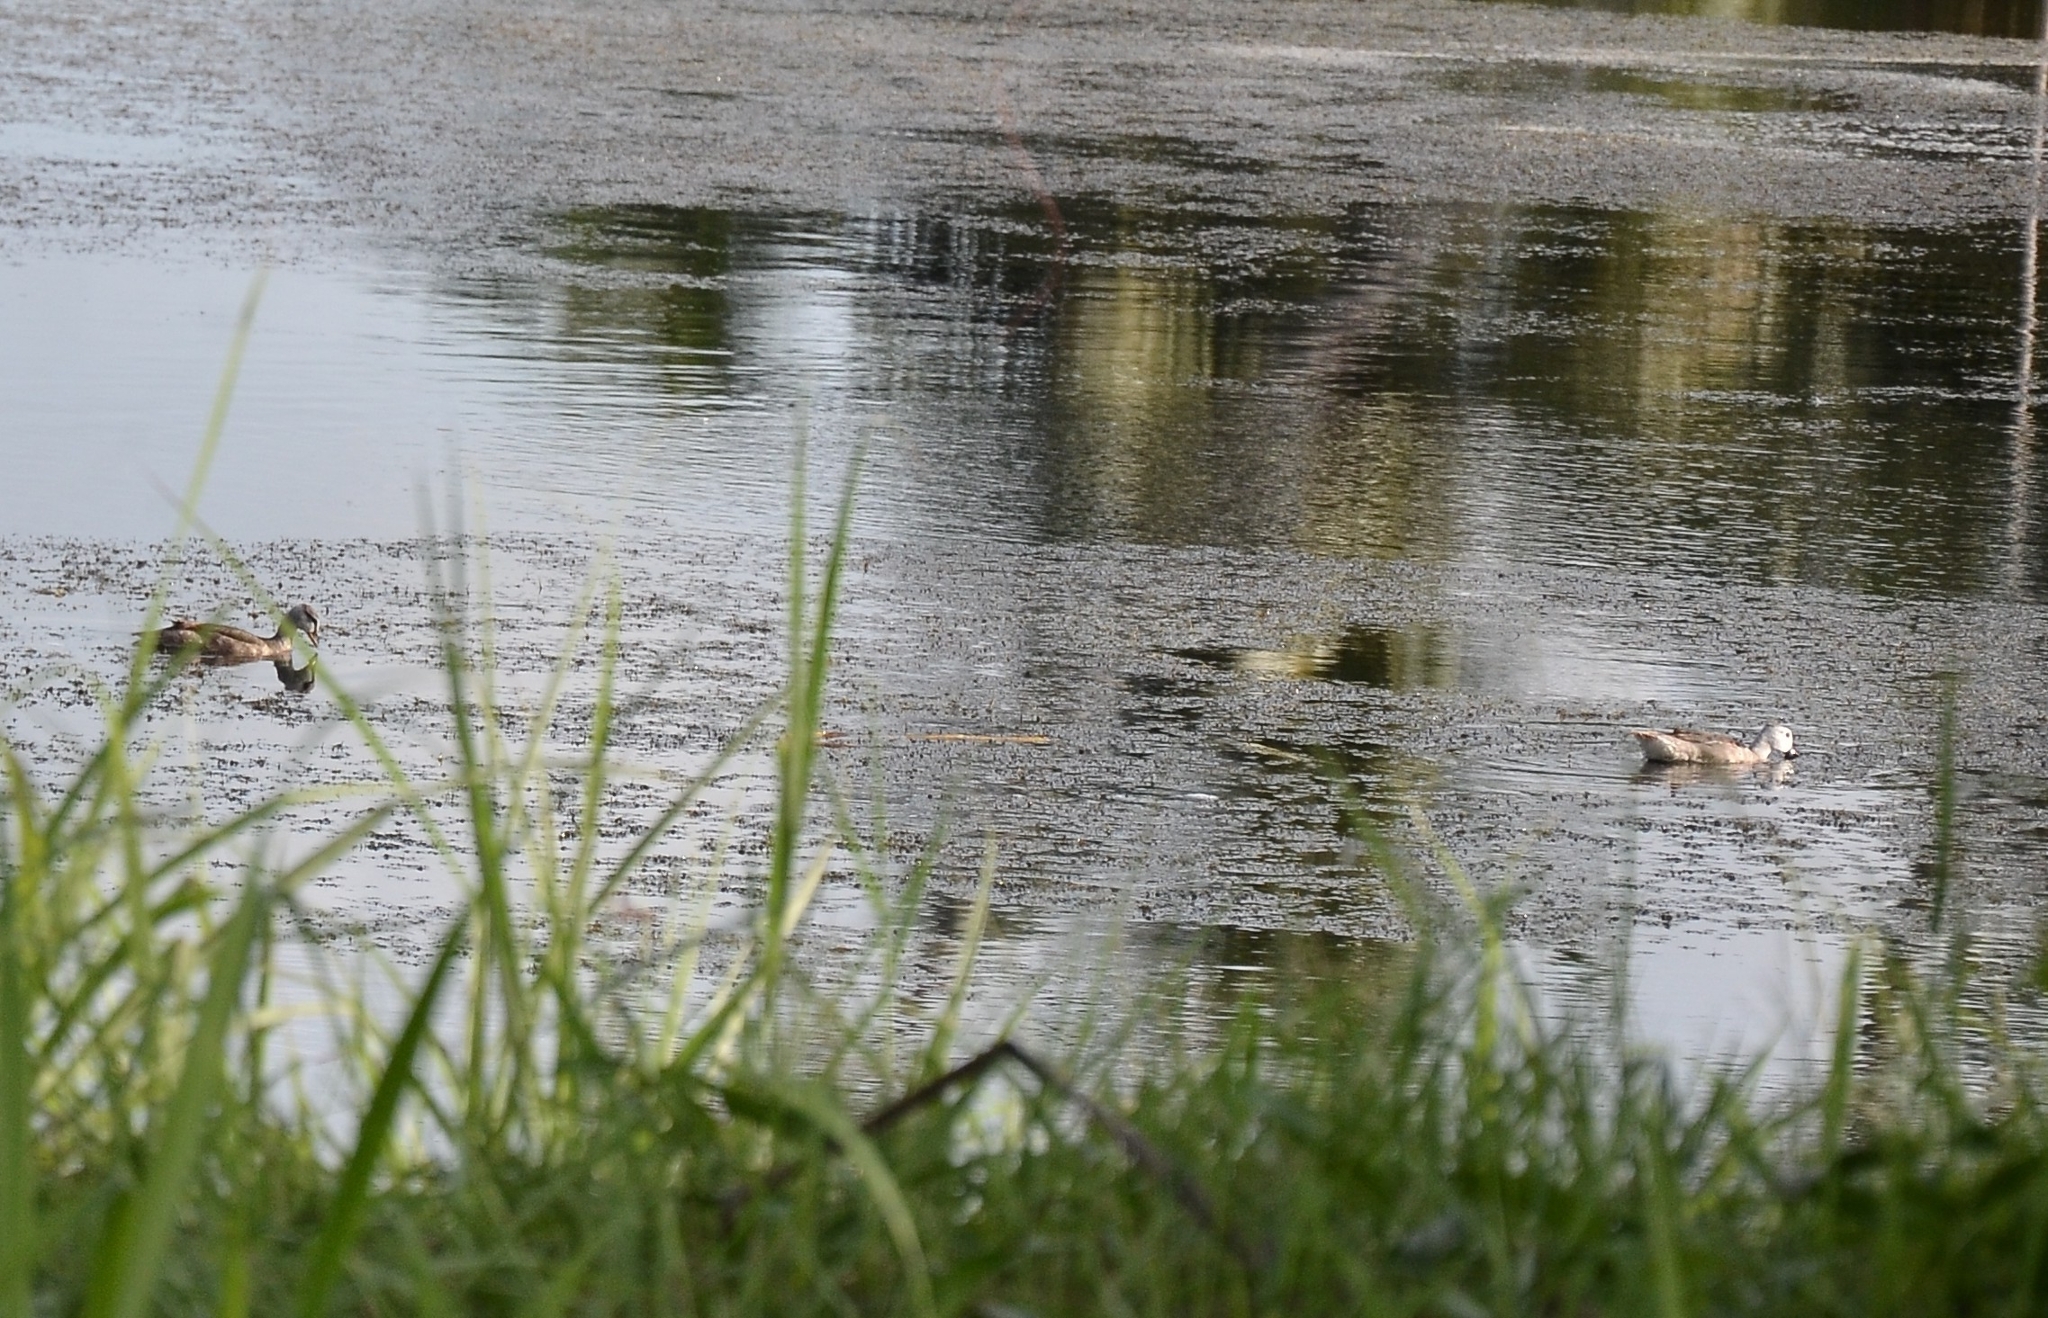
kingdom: Animalia
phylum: Chordata
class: Aves
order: Anseriformes
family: Anatidae
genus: Nettapus
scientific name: Nettapus coromandelianus
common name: Cotton pygmy-goose
